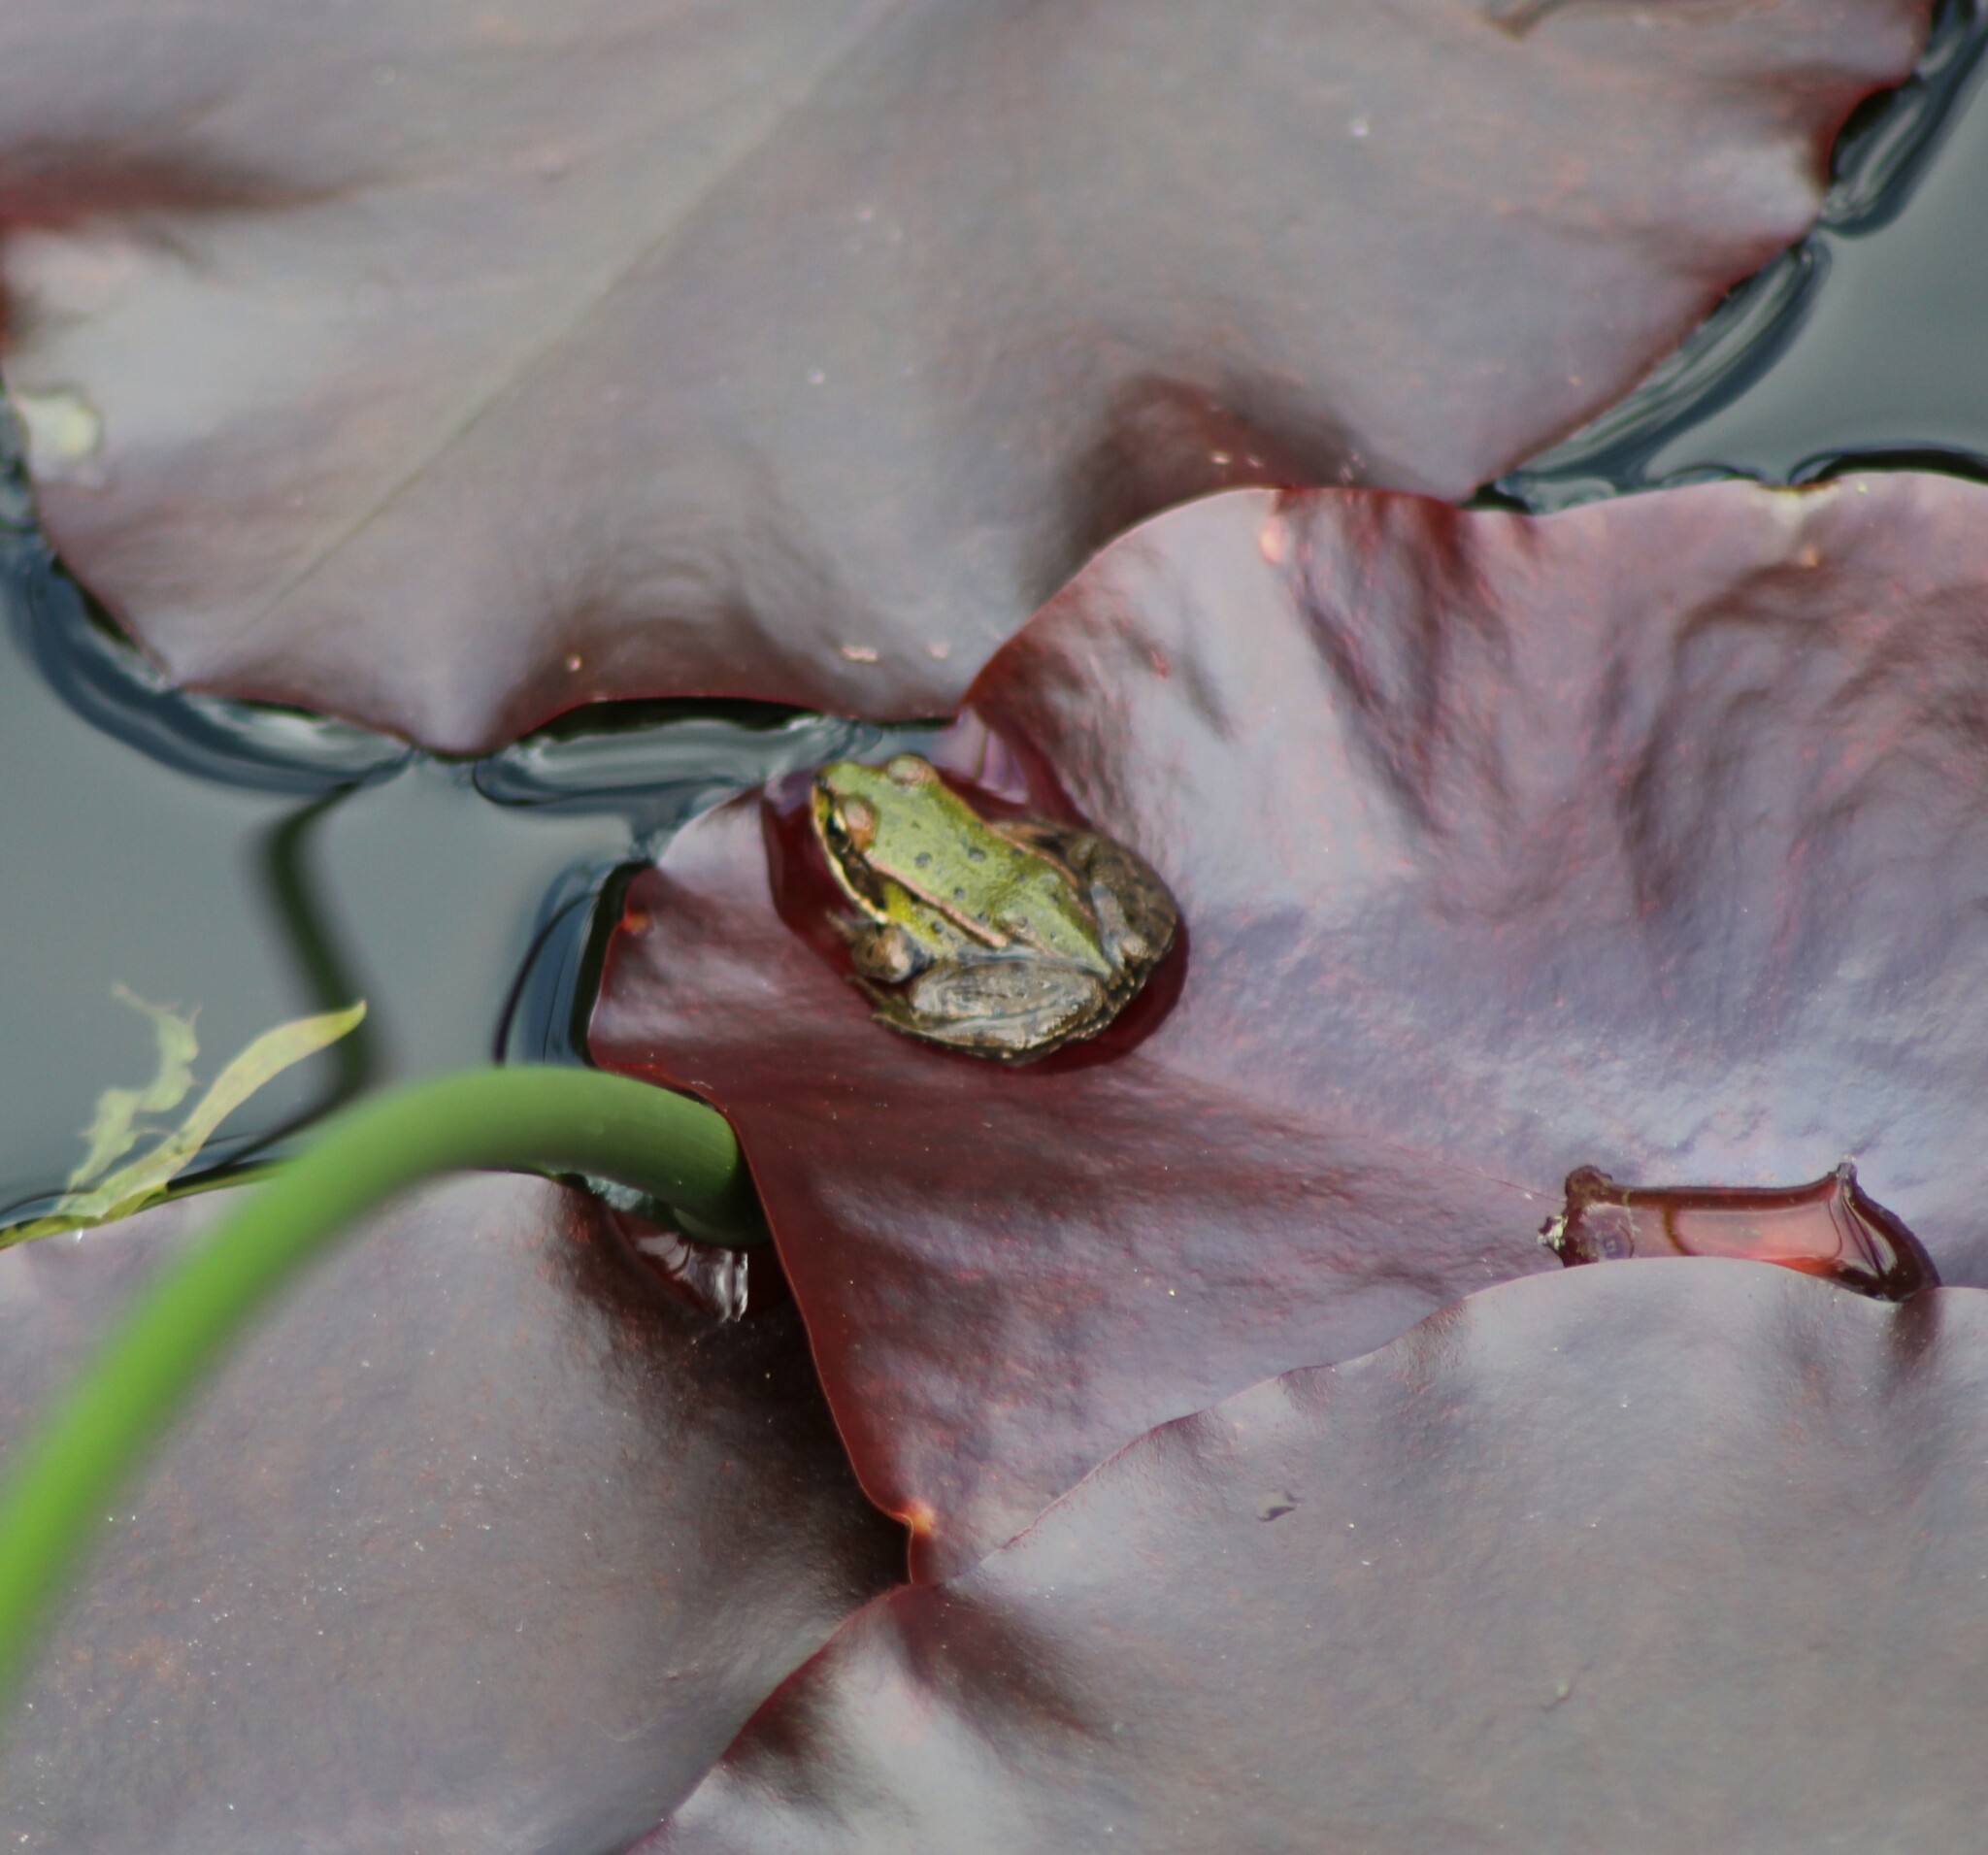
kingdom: Animalia
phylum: Chordata
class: Amphibia
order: Anura
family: Ranidae
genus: Pelophylax
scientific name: Pelophylax
